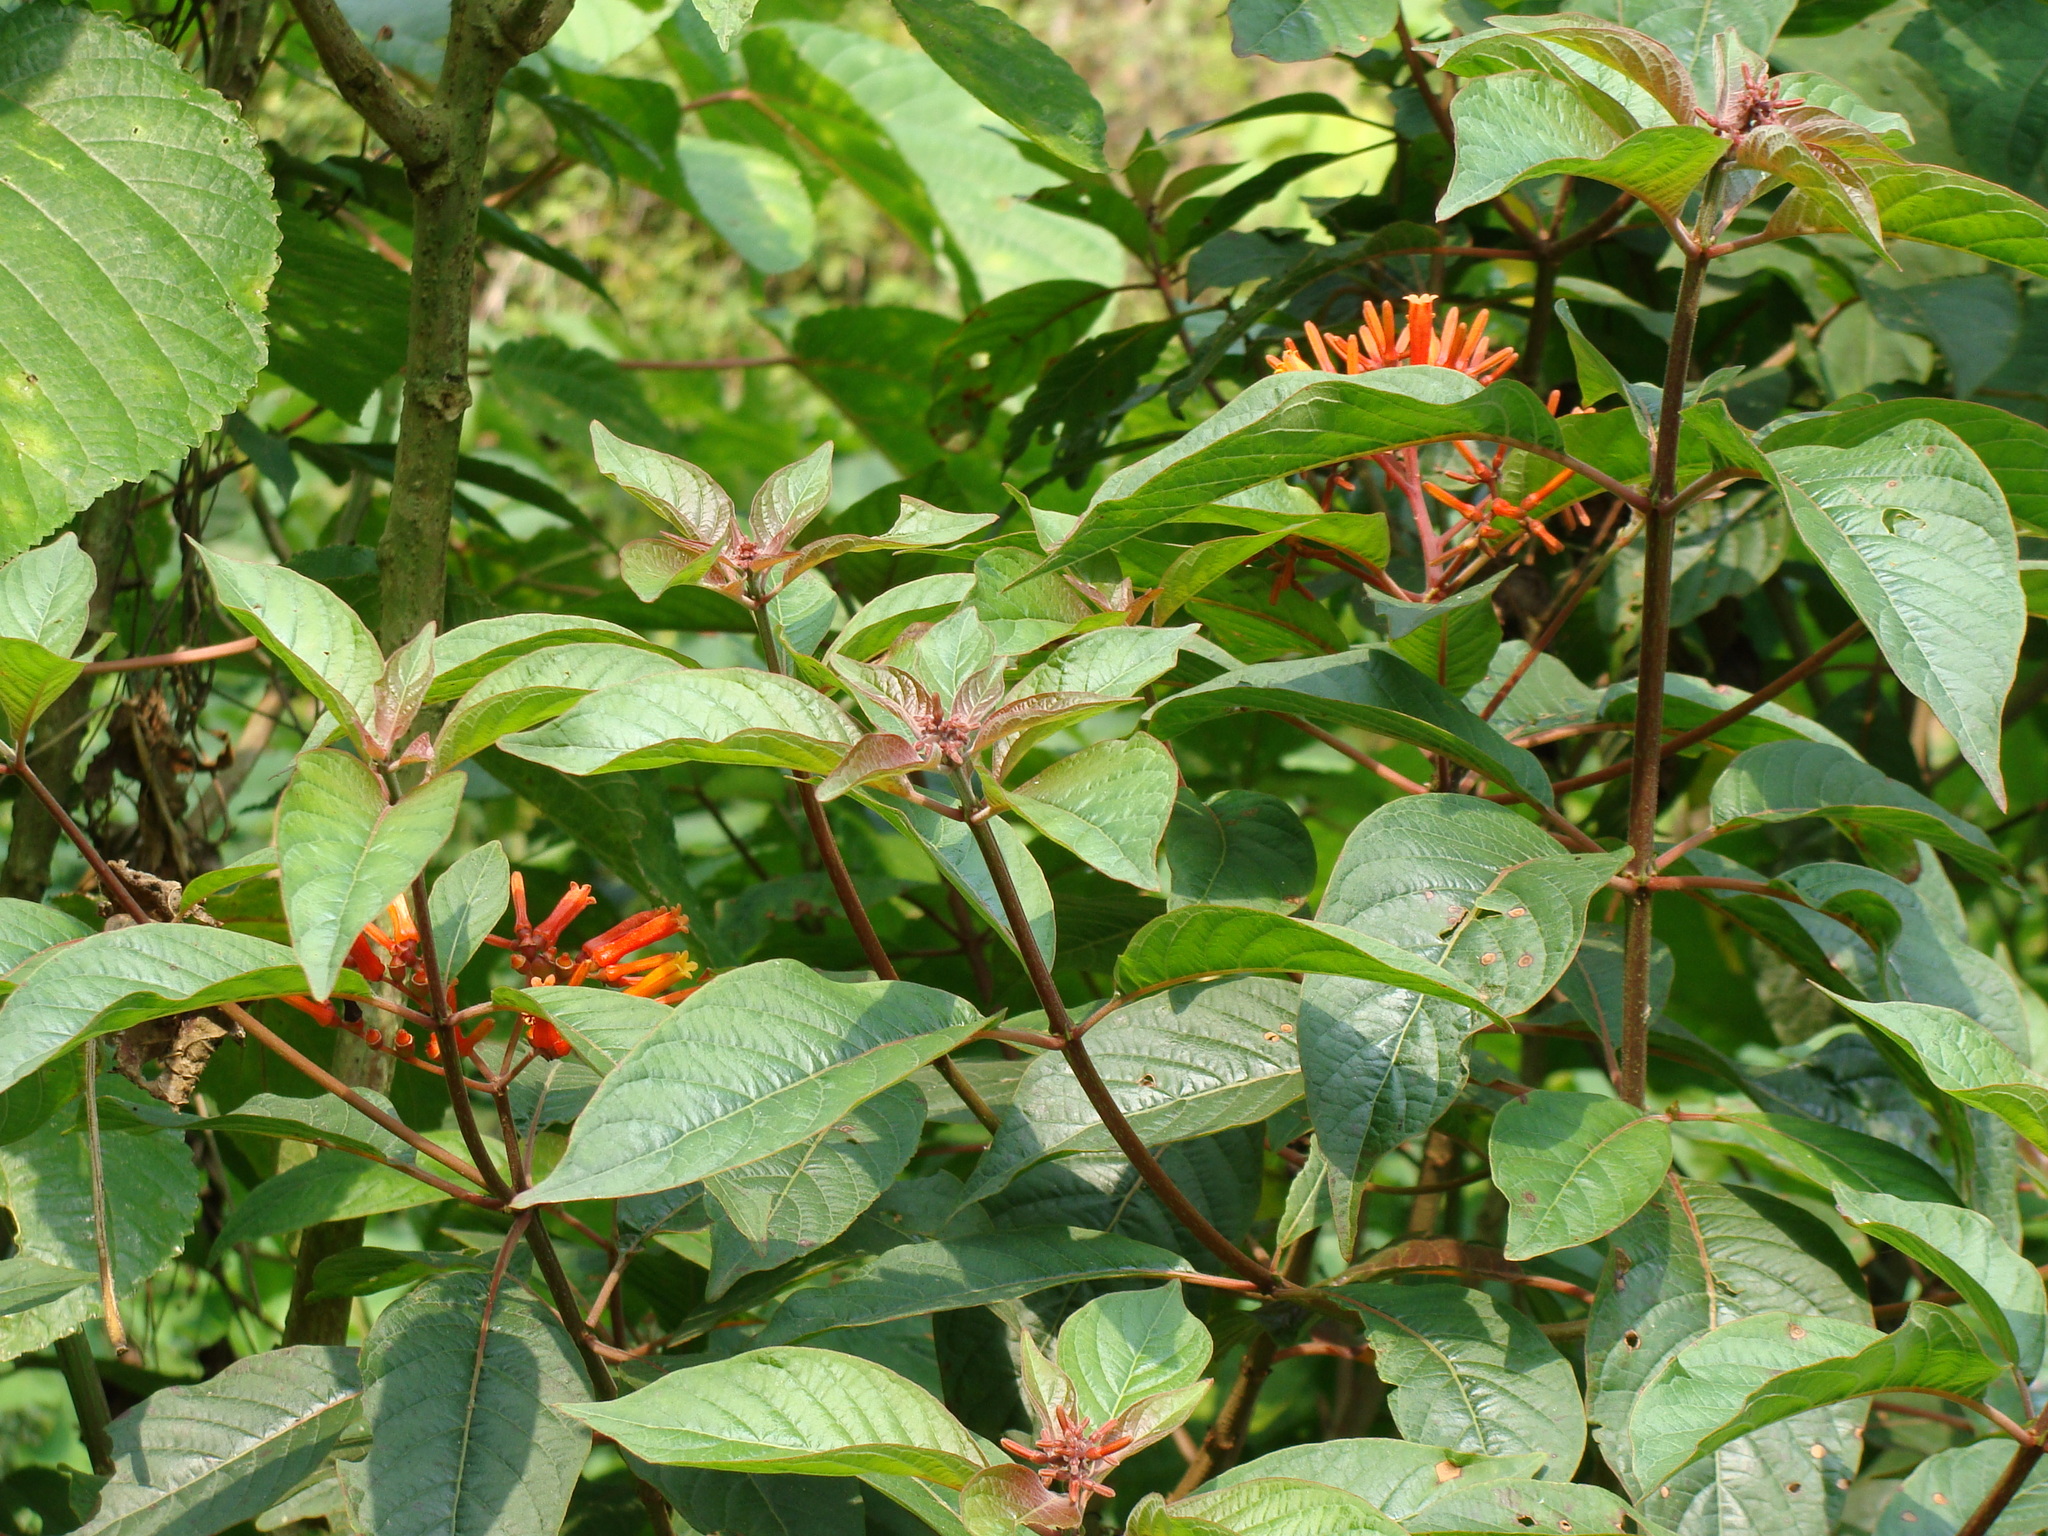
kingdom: Plantae
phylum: Tracheophyta
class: Magnoliopsida
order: Gentianales
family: Rubiaceae
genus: Hamelia
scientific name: Hamelia patens
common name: Redhead
